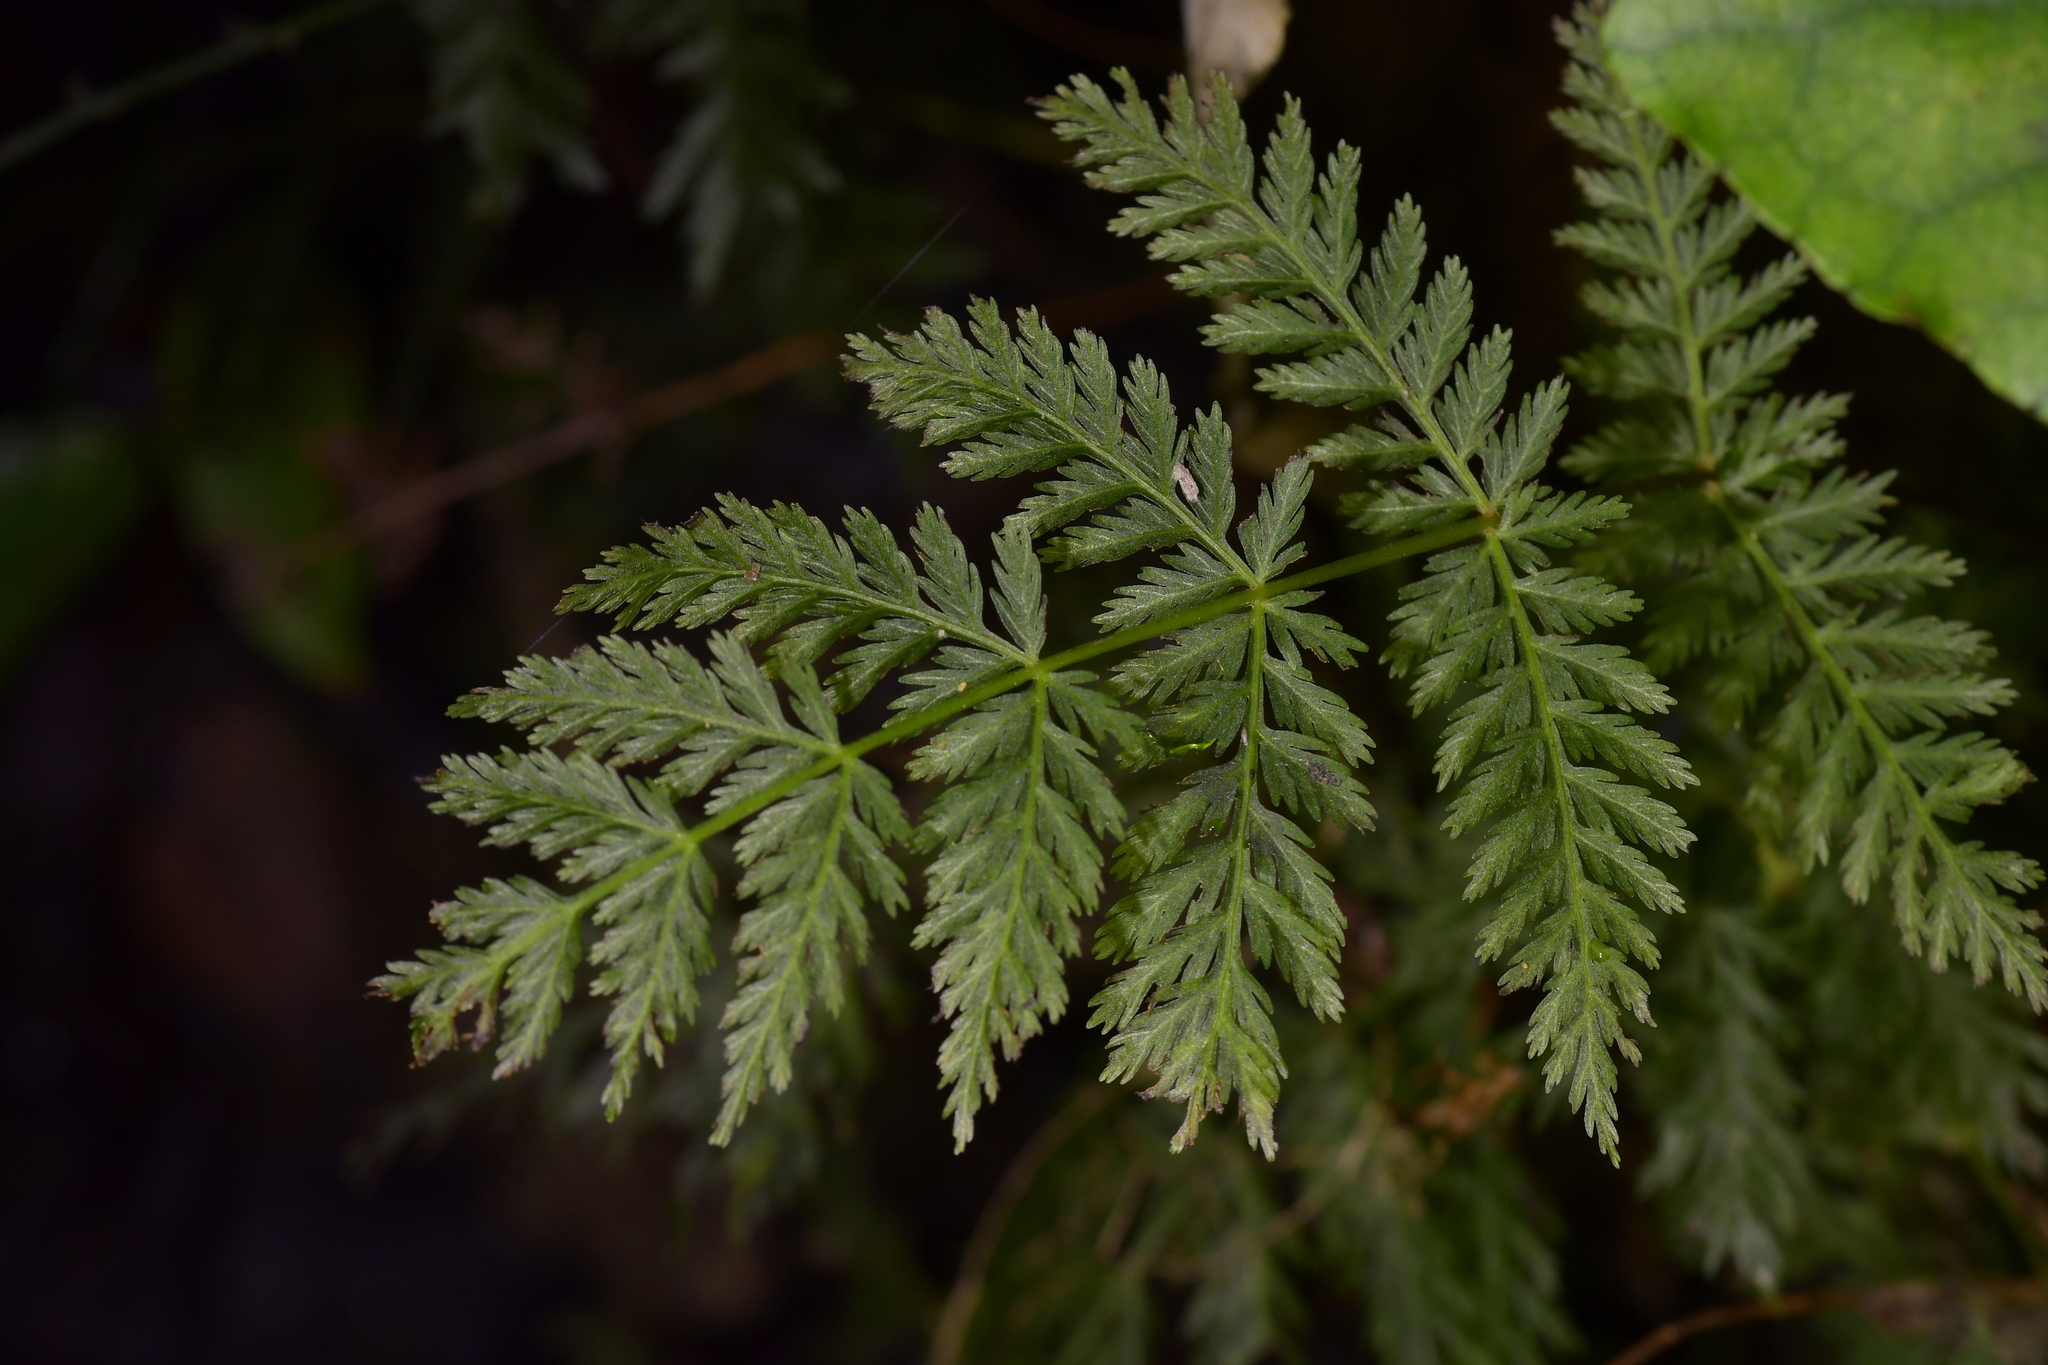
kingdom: Plantae
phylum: Tracheophyta
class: Polypodiopsida
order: Osmundales
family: Osmundaceae
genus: Leptopteris
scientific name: Leptopteris hymenophylloides
